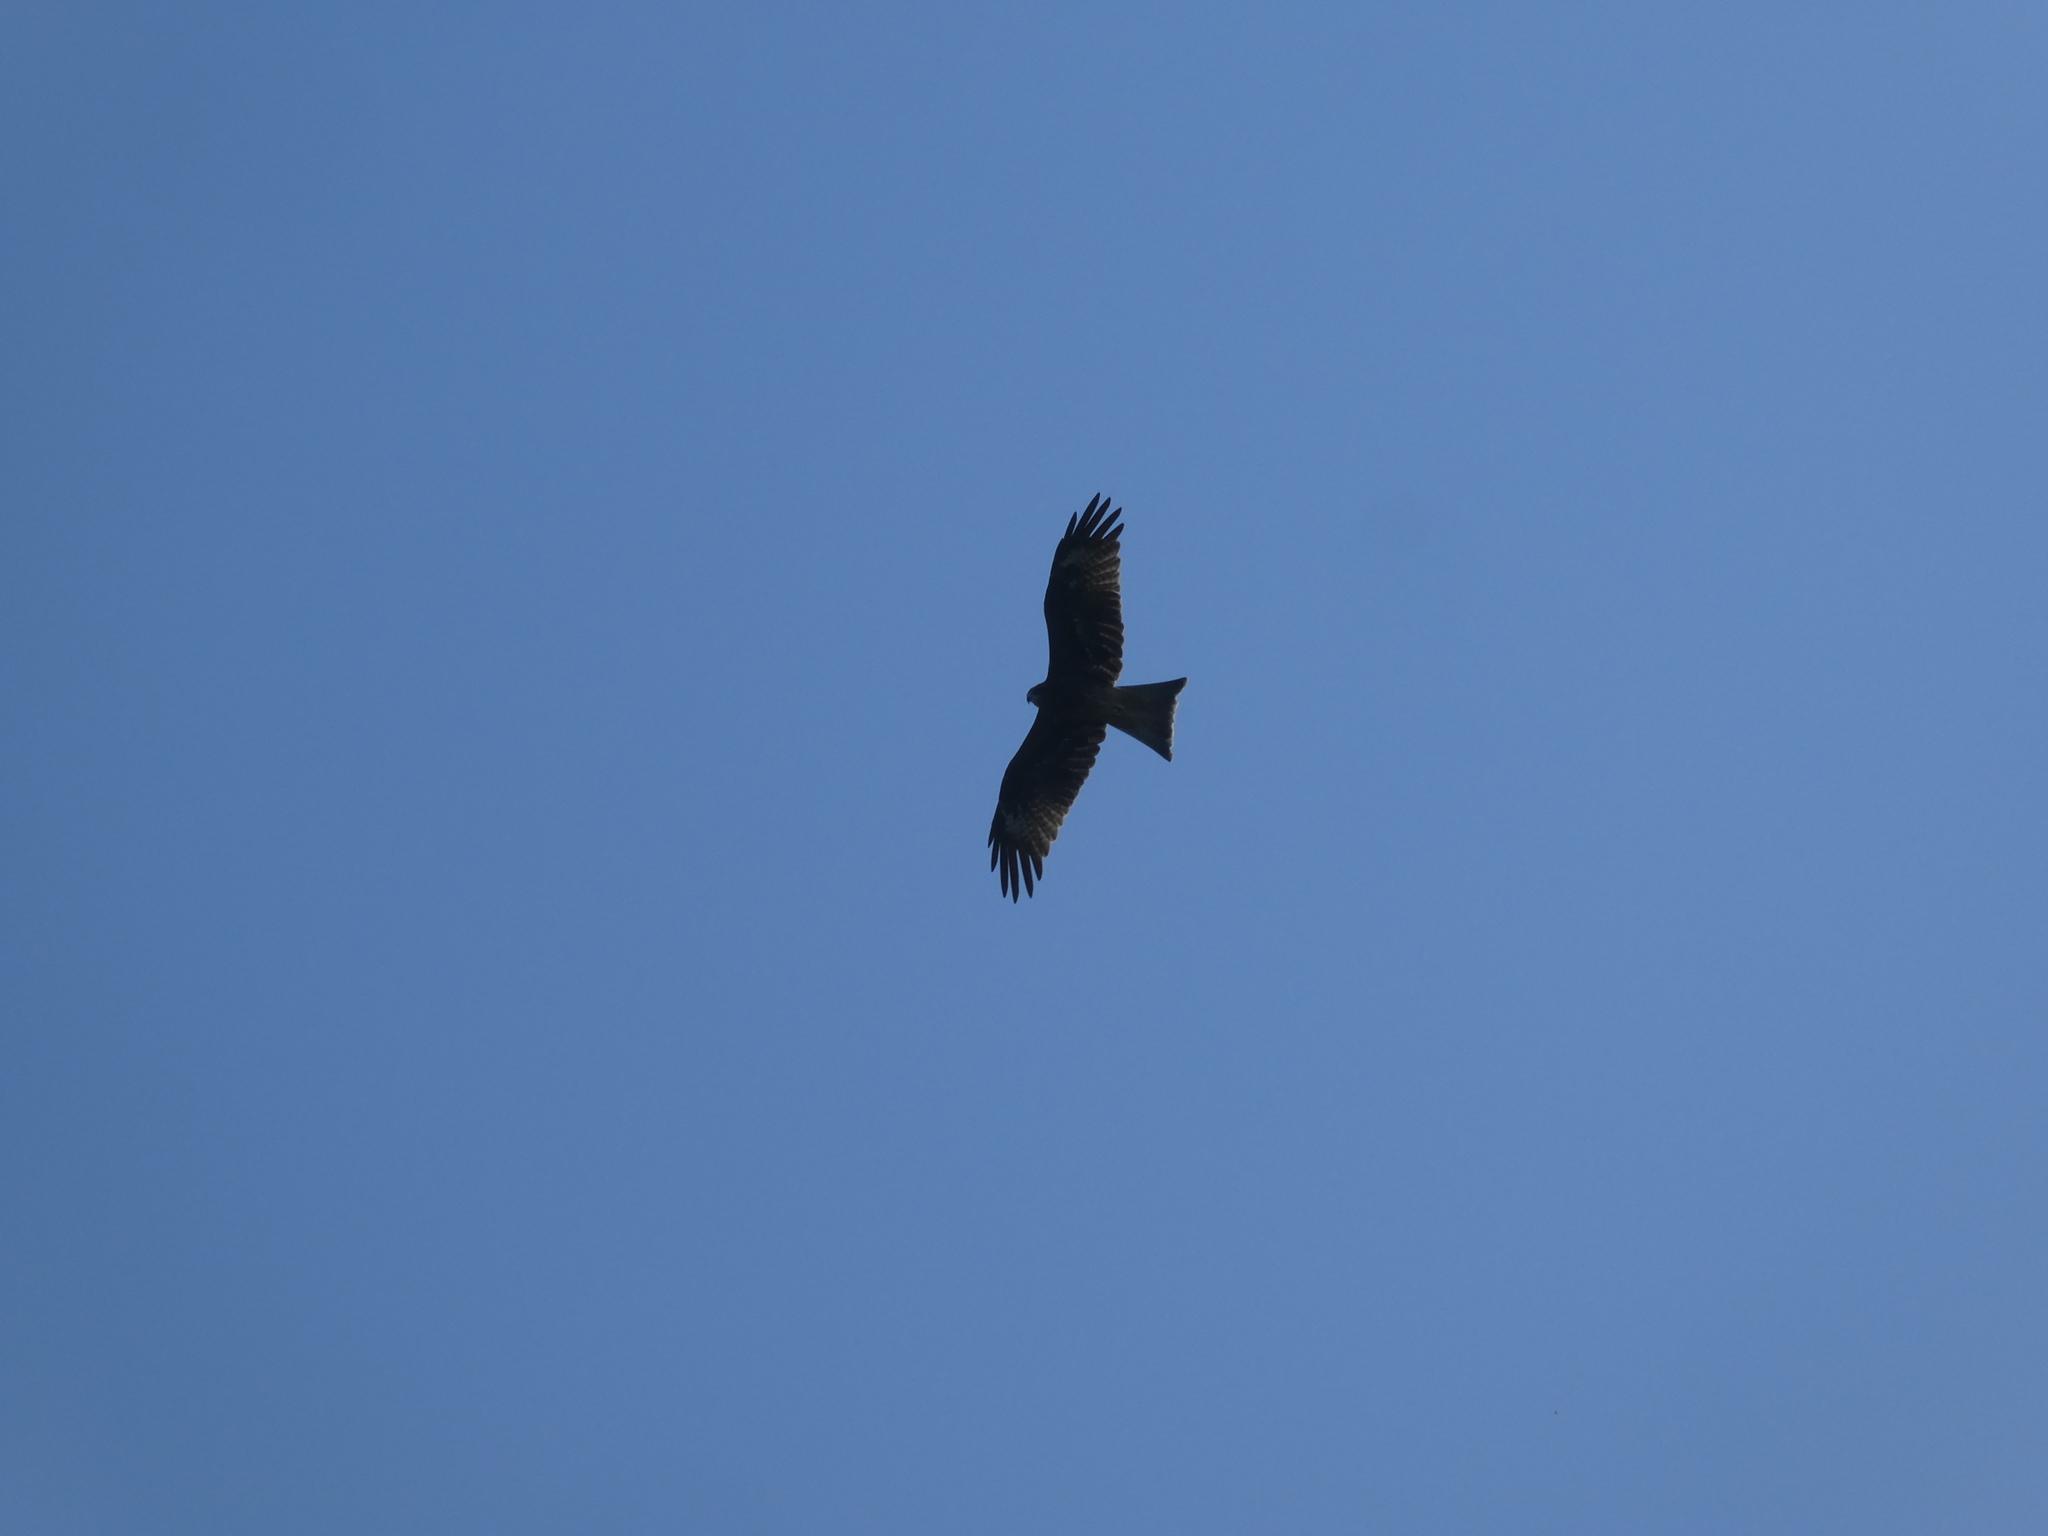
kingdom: Animalia
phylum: Chordata
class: Aves
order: Accipitriformes
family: Accipitridae
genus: Milvus
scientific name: Milvus migrans
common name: Black kite
